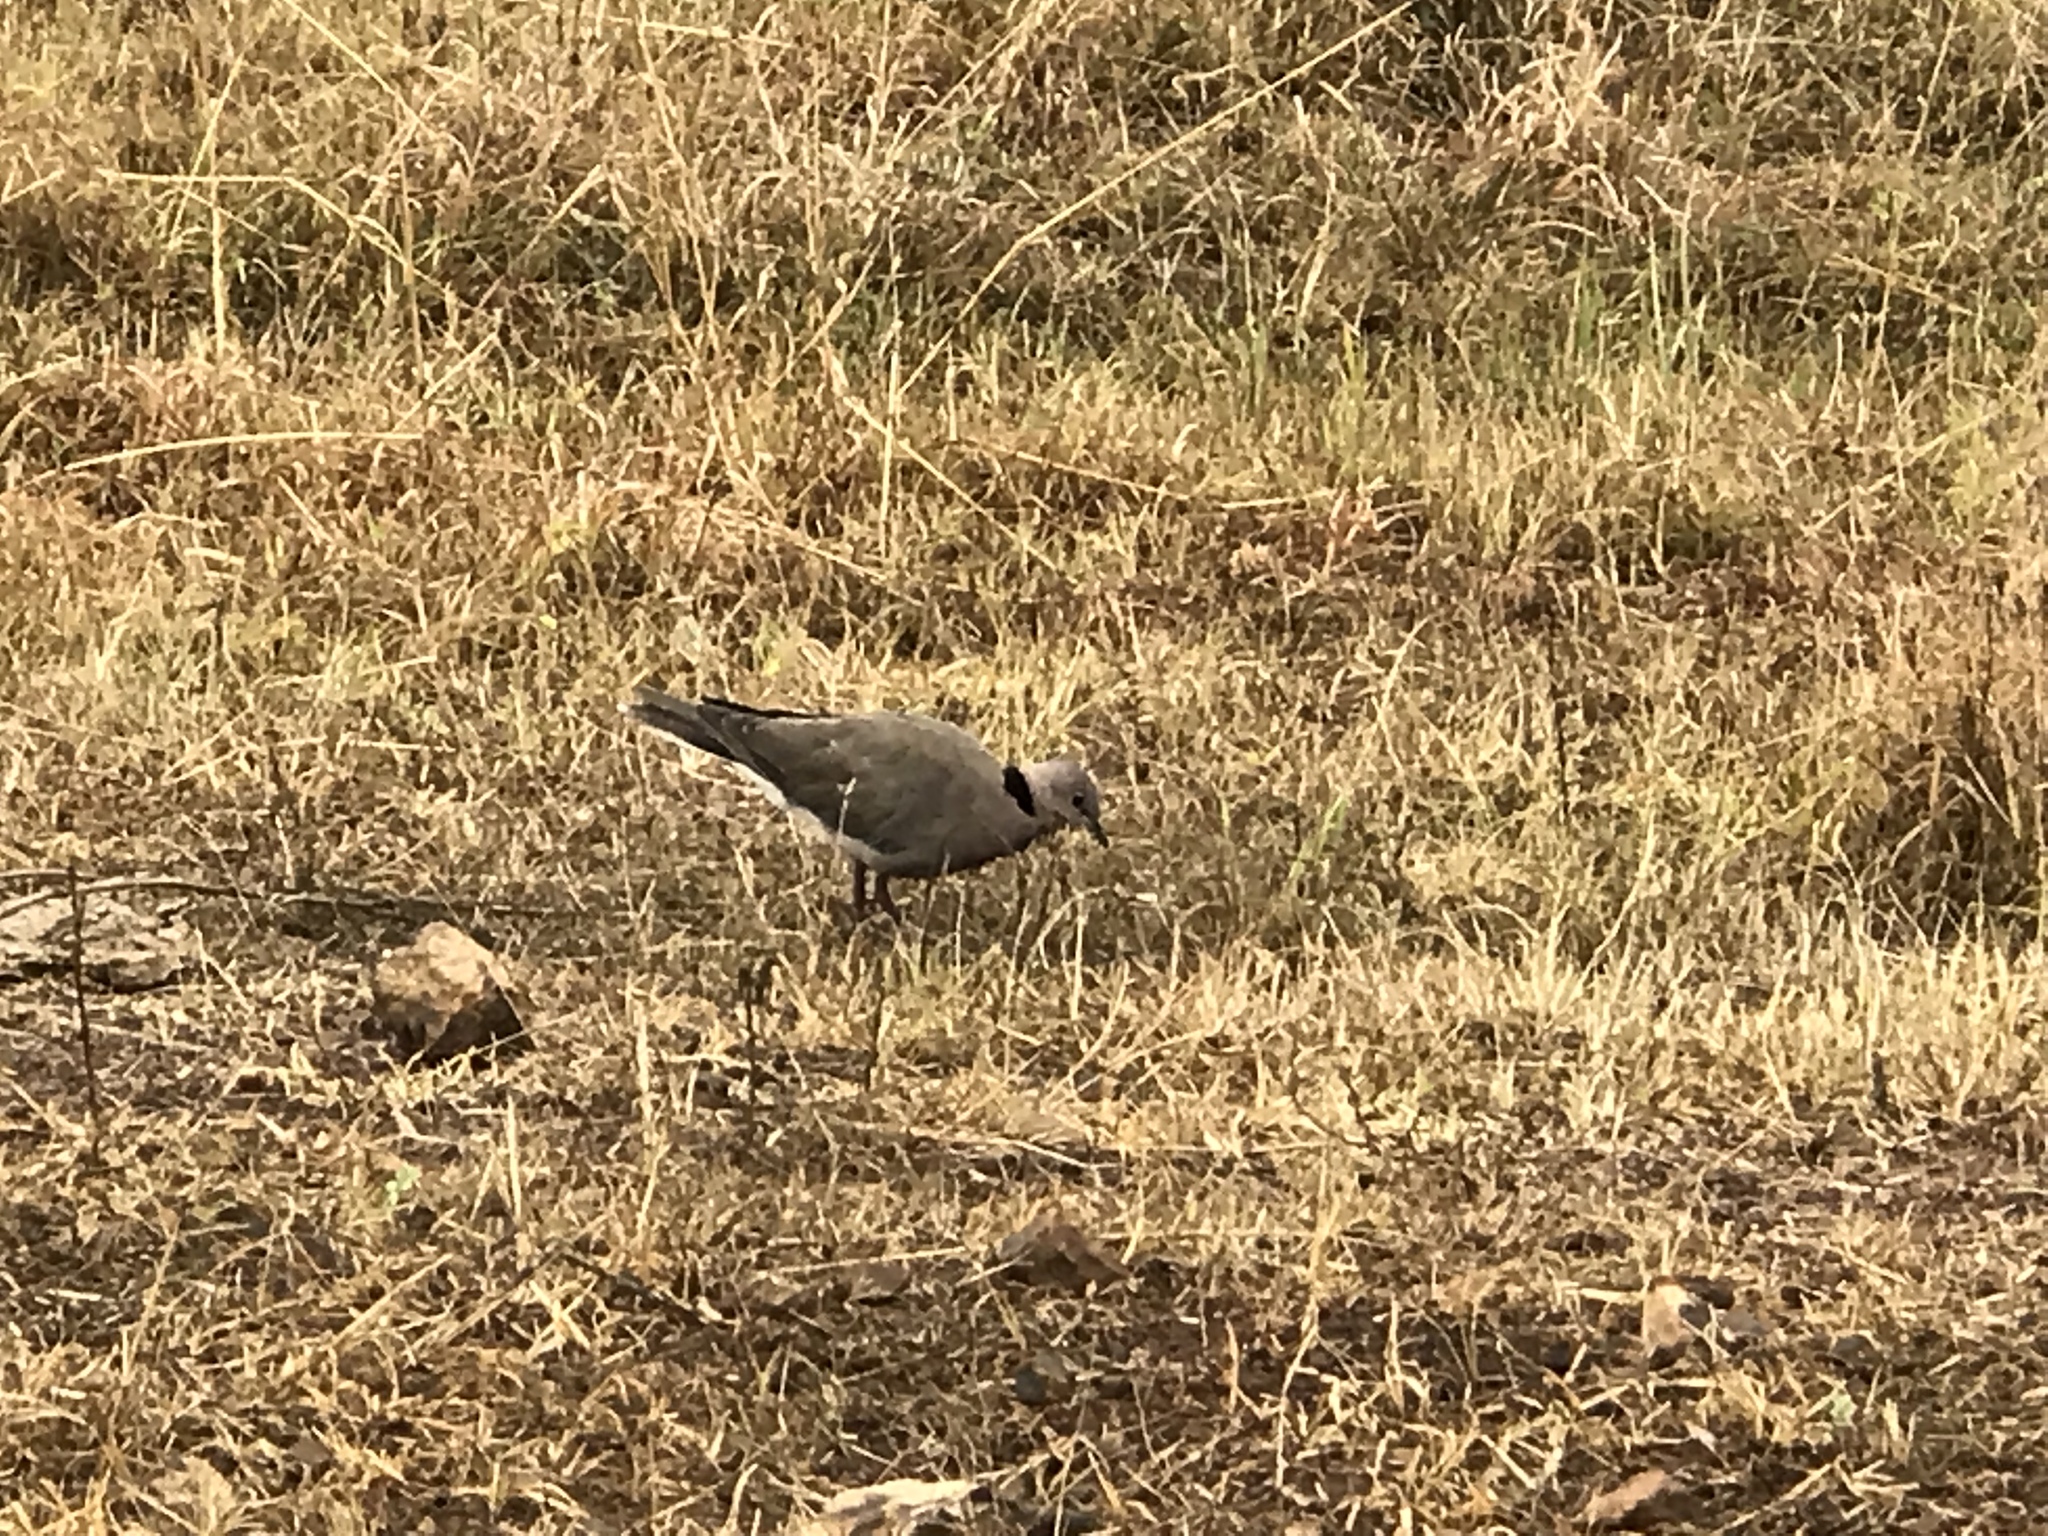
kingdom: Animalia
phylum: Chordata
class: Aves
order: Columbiformes
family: Columbidae
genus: Streptopelia
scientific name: Streptopelia capicola
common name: Ring-necked dove
